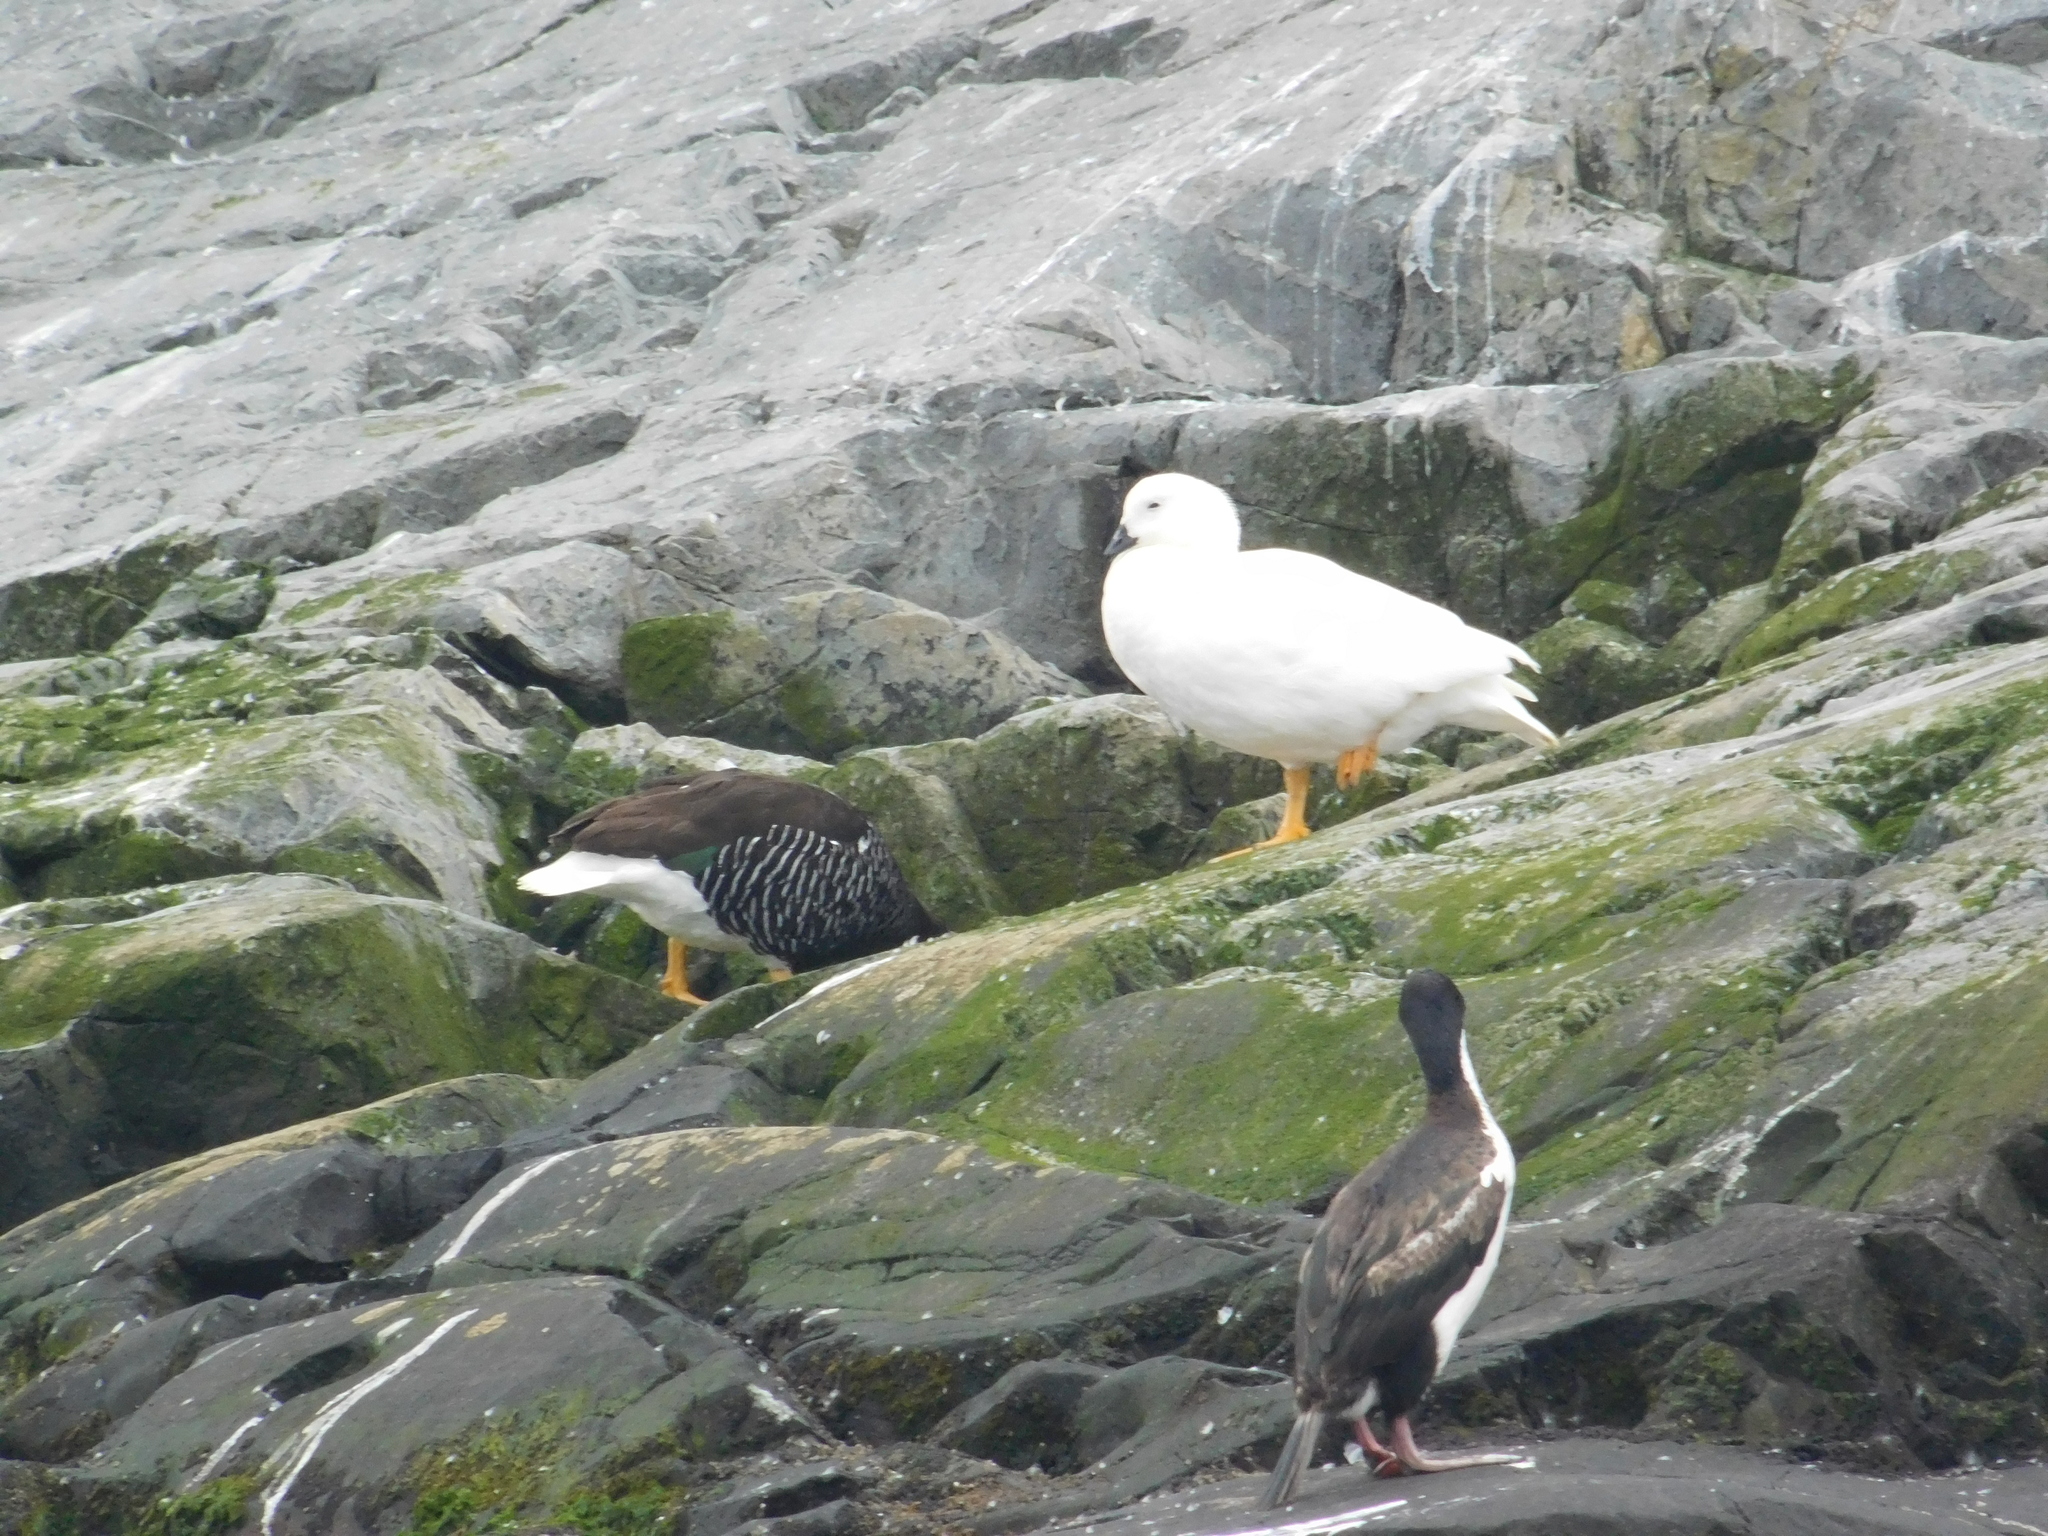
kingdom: Animalia
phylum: Chordata
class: Aves
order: Anseriformes
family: Anatidae
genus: Chloephaga
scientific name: Chloephaga hybrida
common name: Kelp goose
